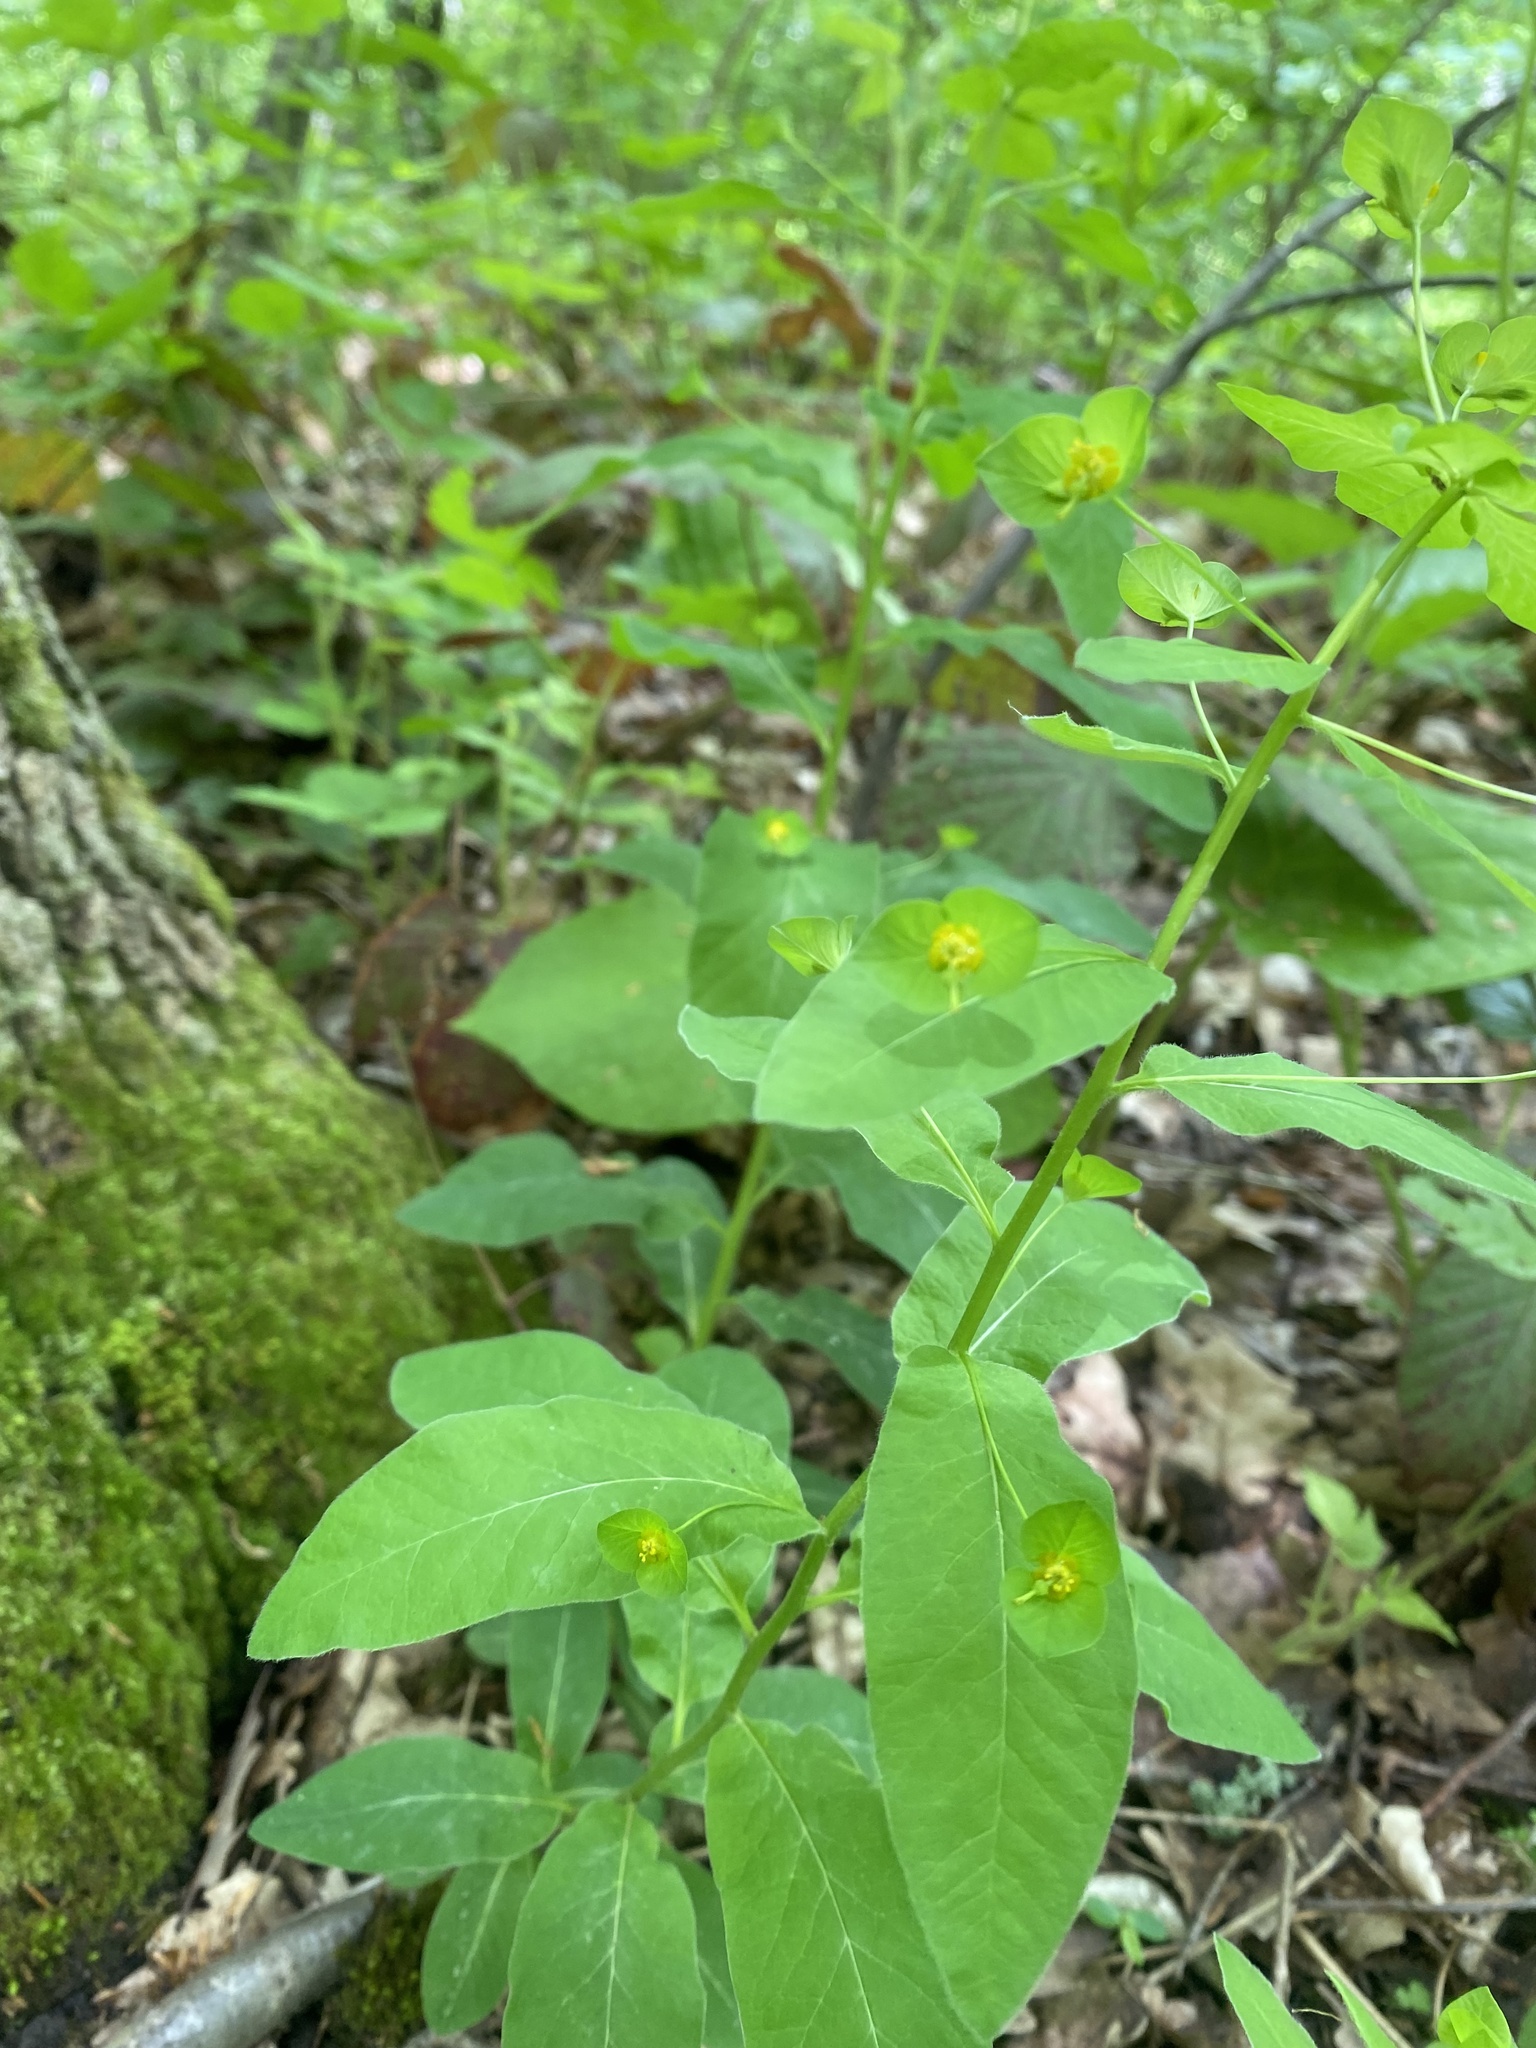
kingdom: Plantae
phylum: Tracheophyta
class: Magnoliopsida
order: Malpighiales
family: Euphorbiaceae
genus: Euphorbia
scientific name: Euphorbia squamosa
